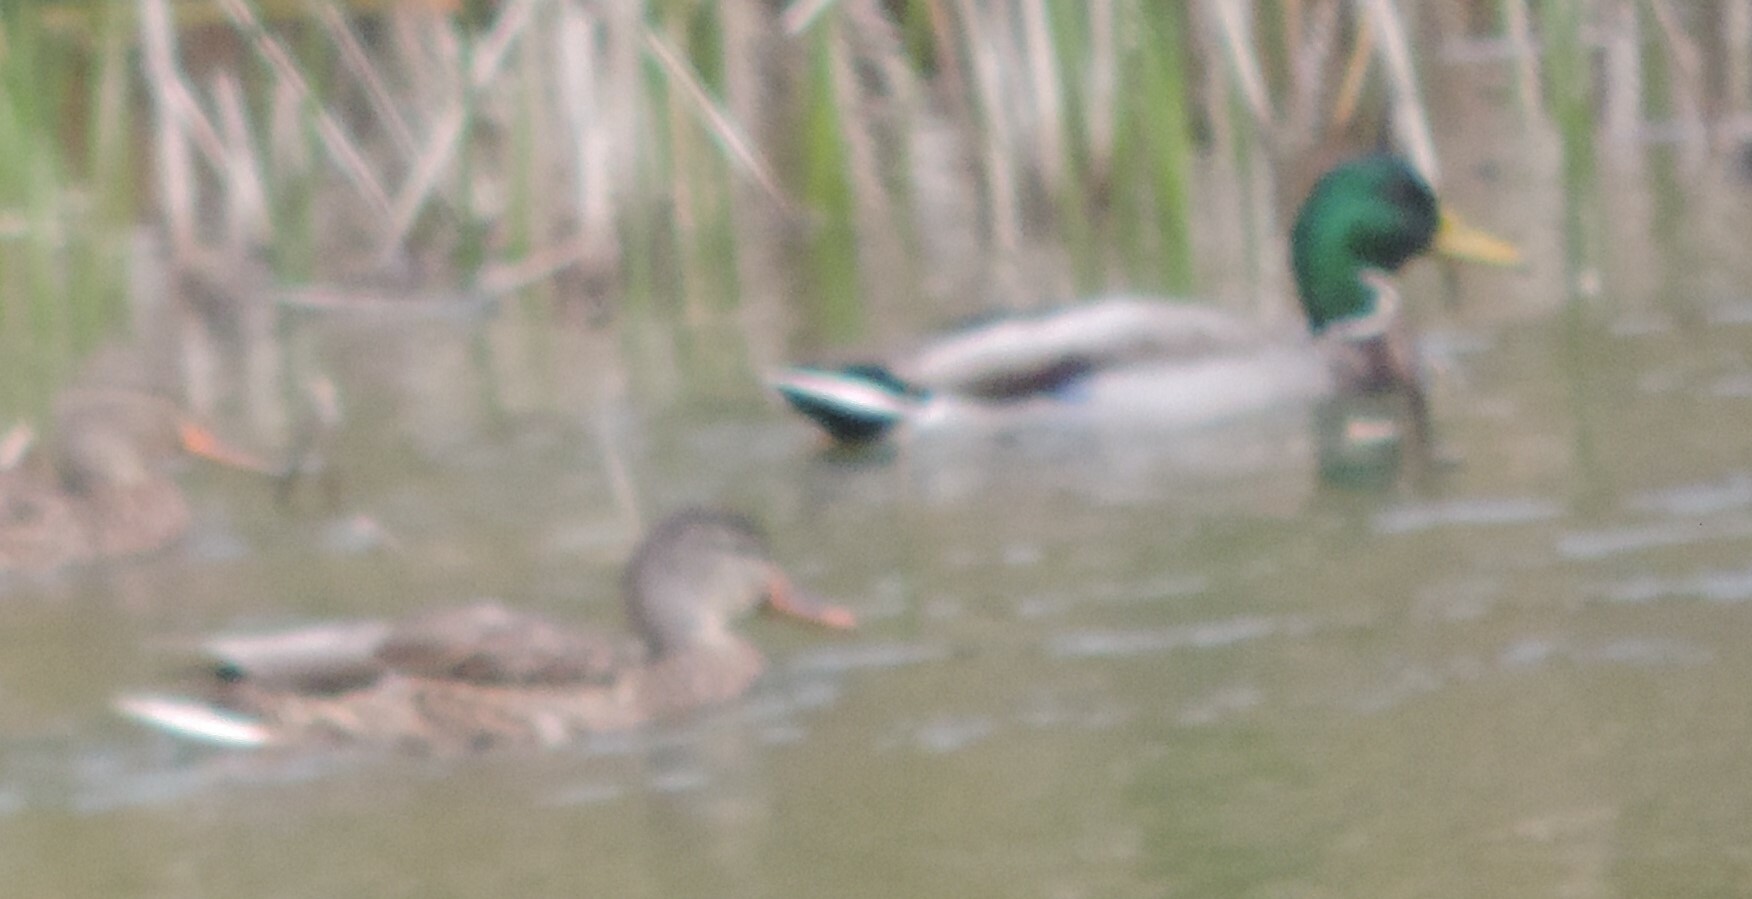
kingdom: Animalia
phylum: Chordata
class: Aves
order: Anseriformes
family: Anatidae
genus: Anas
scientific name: Anas platyrhynchos
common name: Mallard
